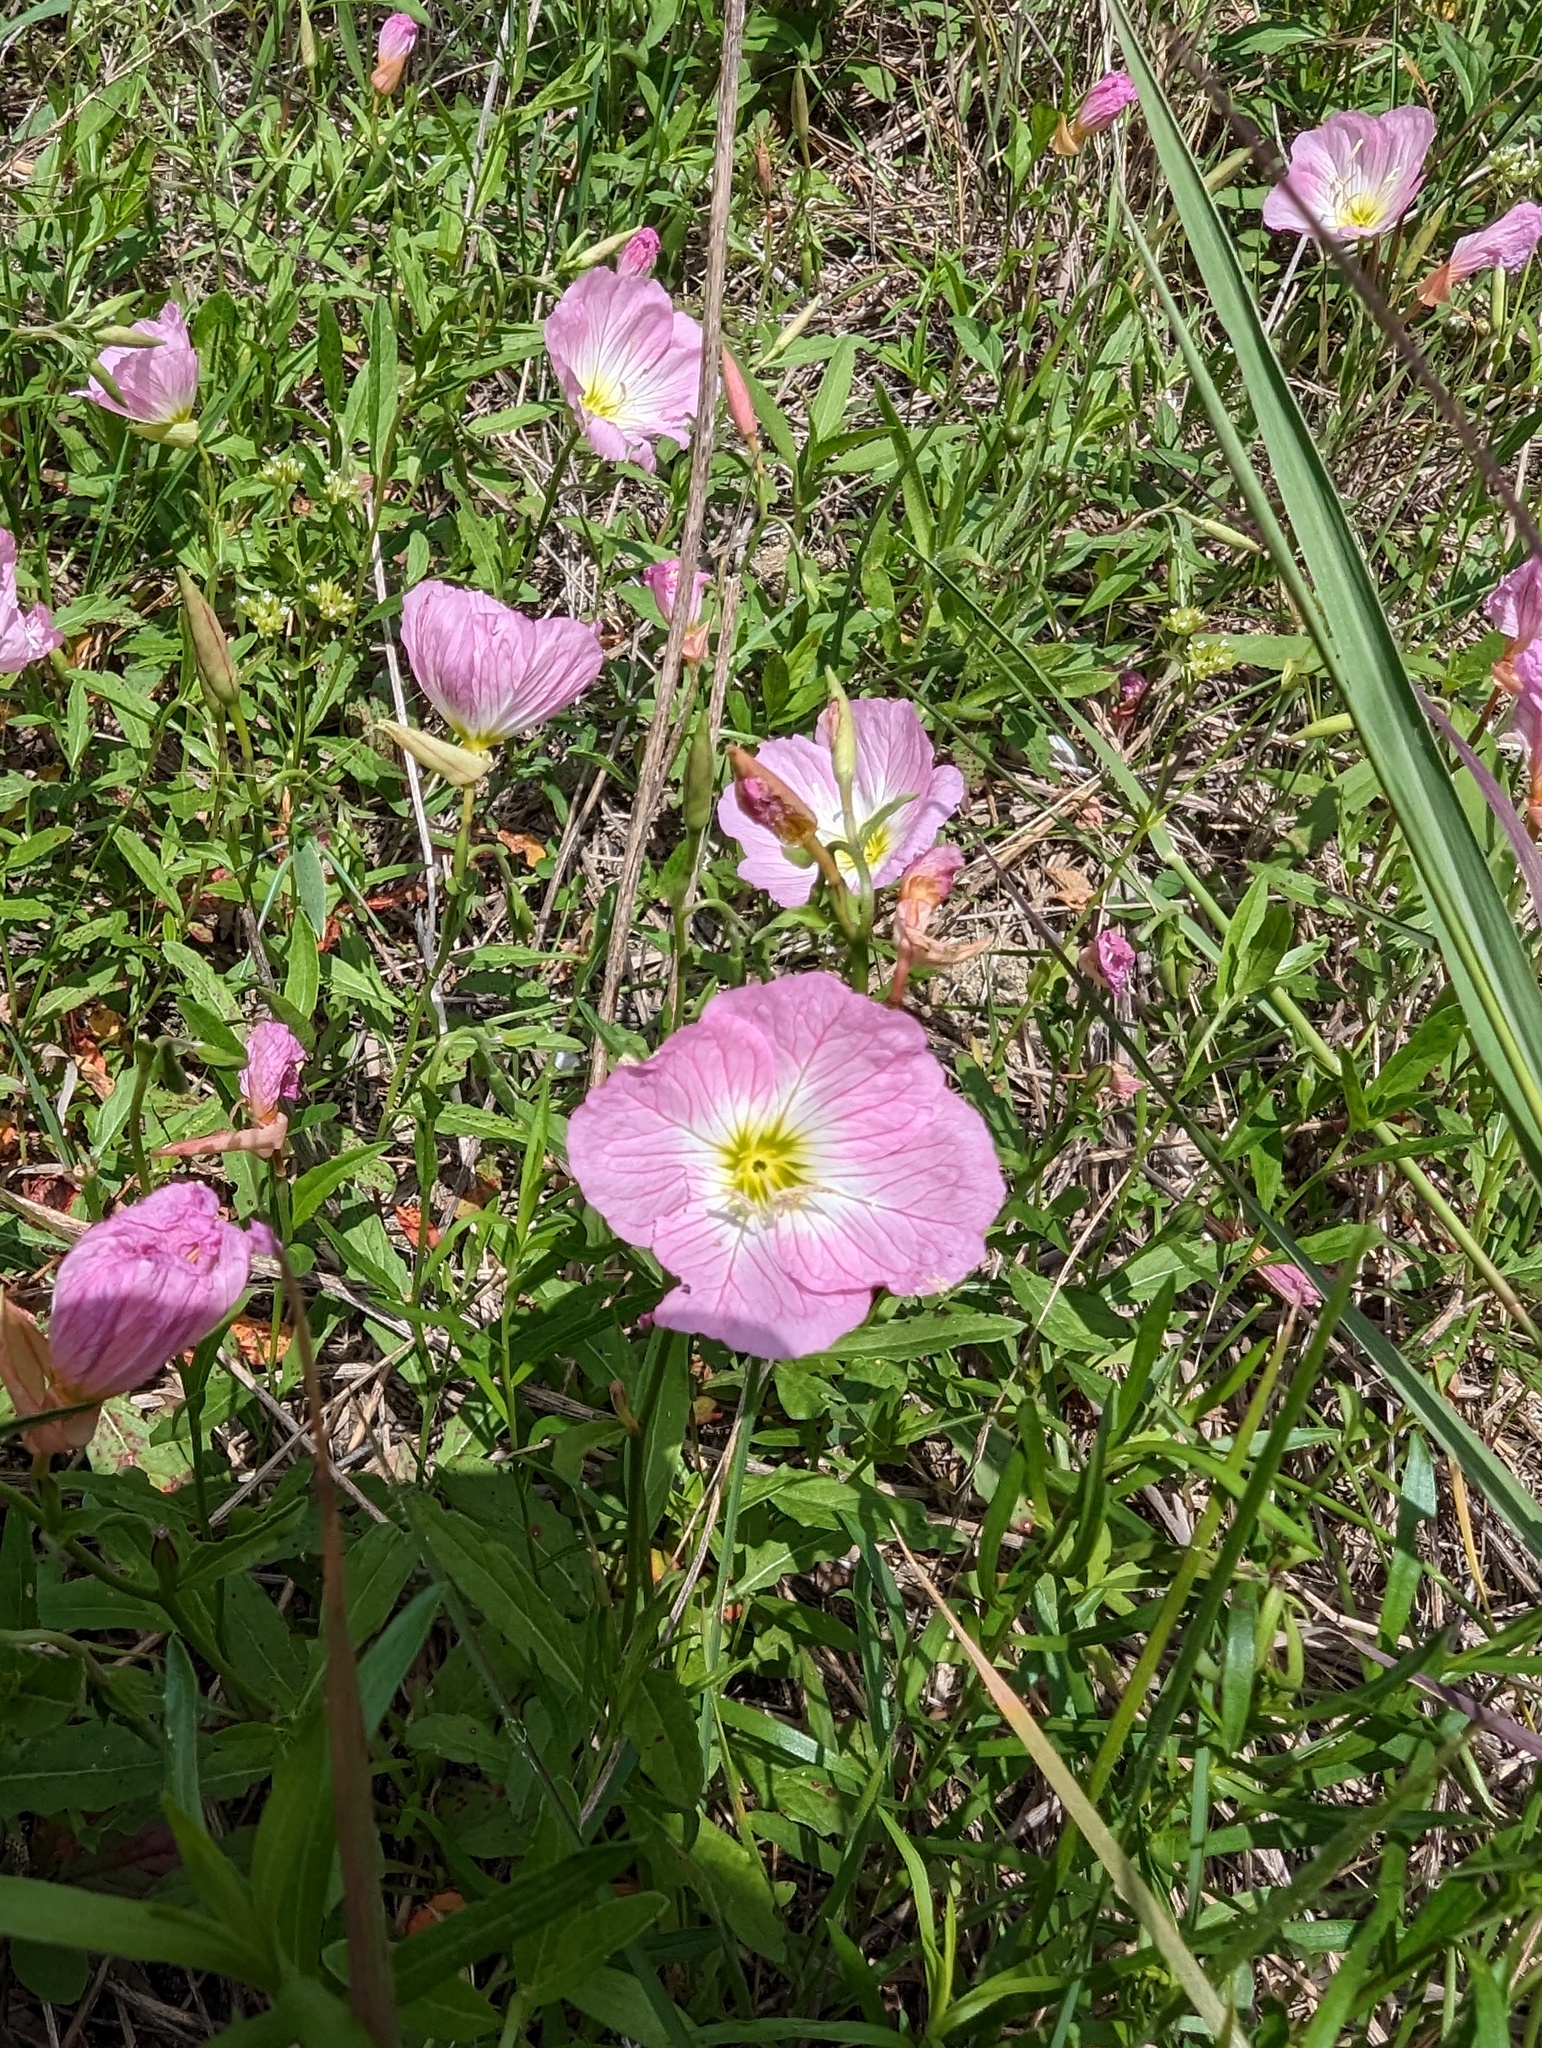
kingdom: Plantae
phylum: Tracheophyta
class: Magnoliopsida
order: Myrtales
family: Onagraceae
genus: Oenothera
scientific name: Oenothera speciosa
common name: White evening-primrose
